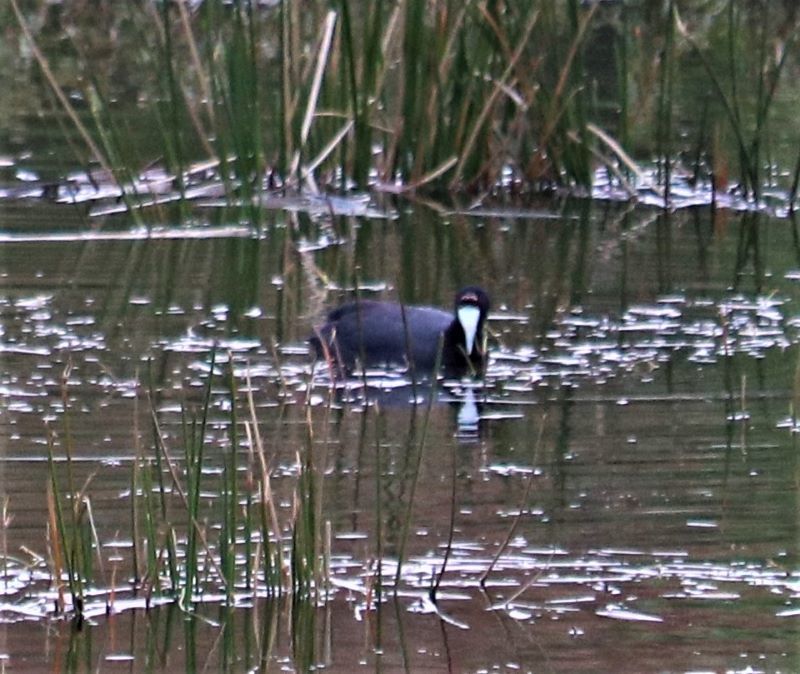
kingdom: Animalia
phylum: Chordata
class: Aves
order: Gruiformes
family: Rallidae
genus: Fulica
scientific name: Fulica cristata
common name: Red-knobbed coot
